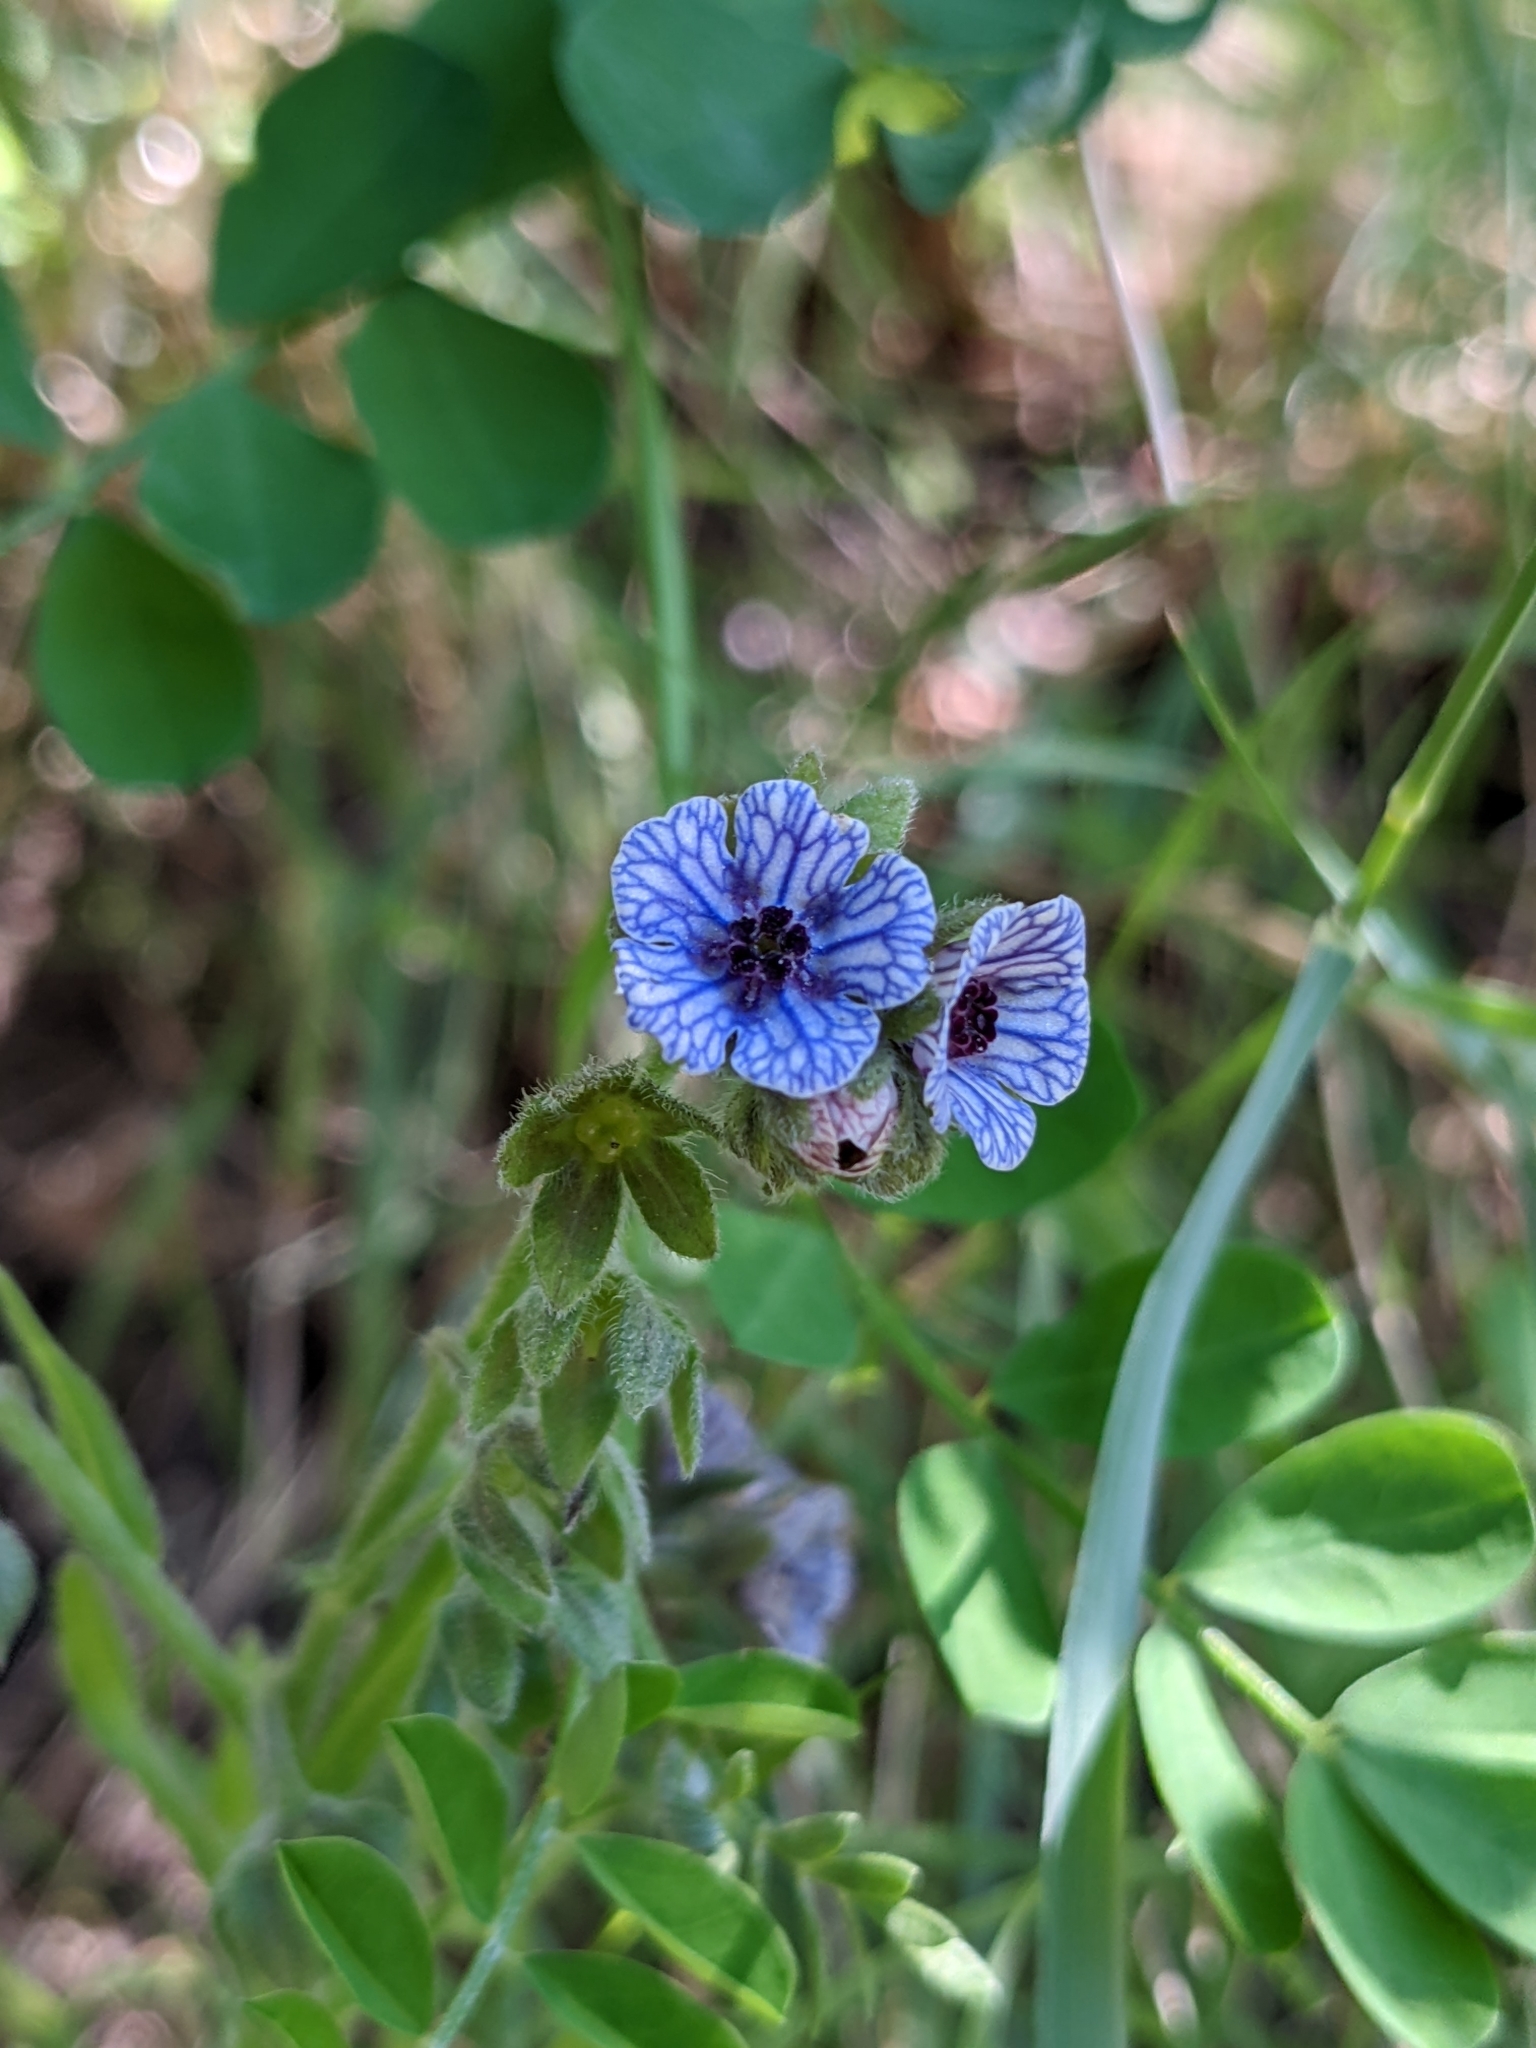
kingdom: Plantae
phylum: Tracheophyta
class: Magnoliopsida
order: Boraginales
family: Boraginaceae
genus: Cynoglossum
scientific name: Cynoglossum creticum
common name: Blue hound's tongue
